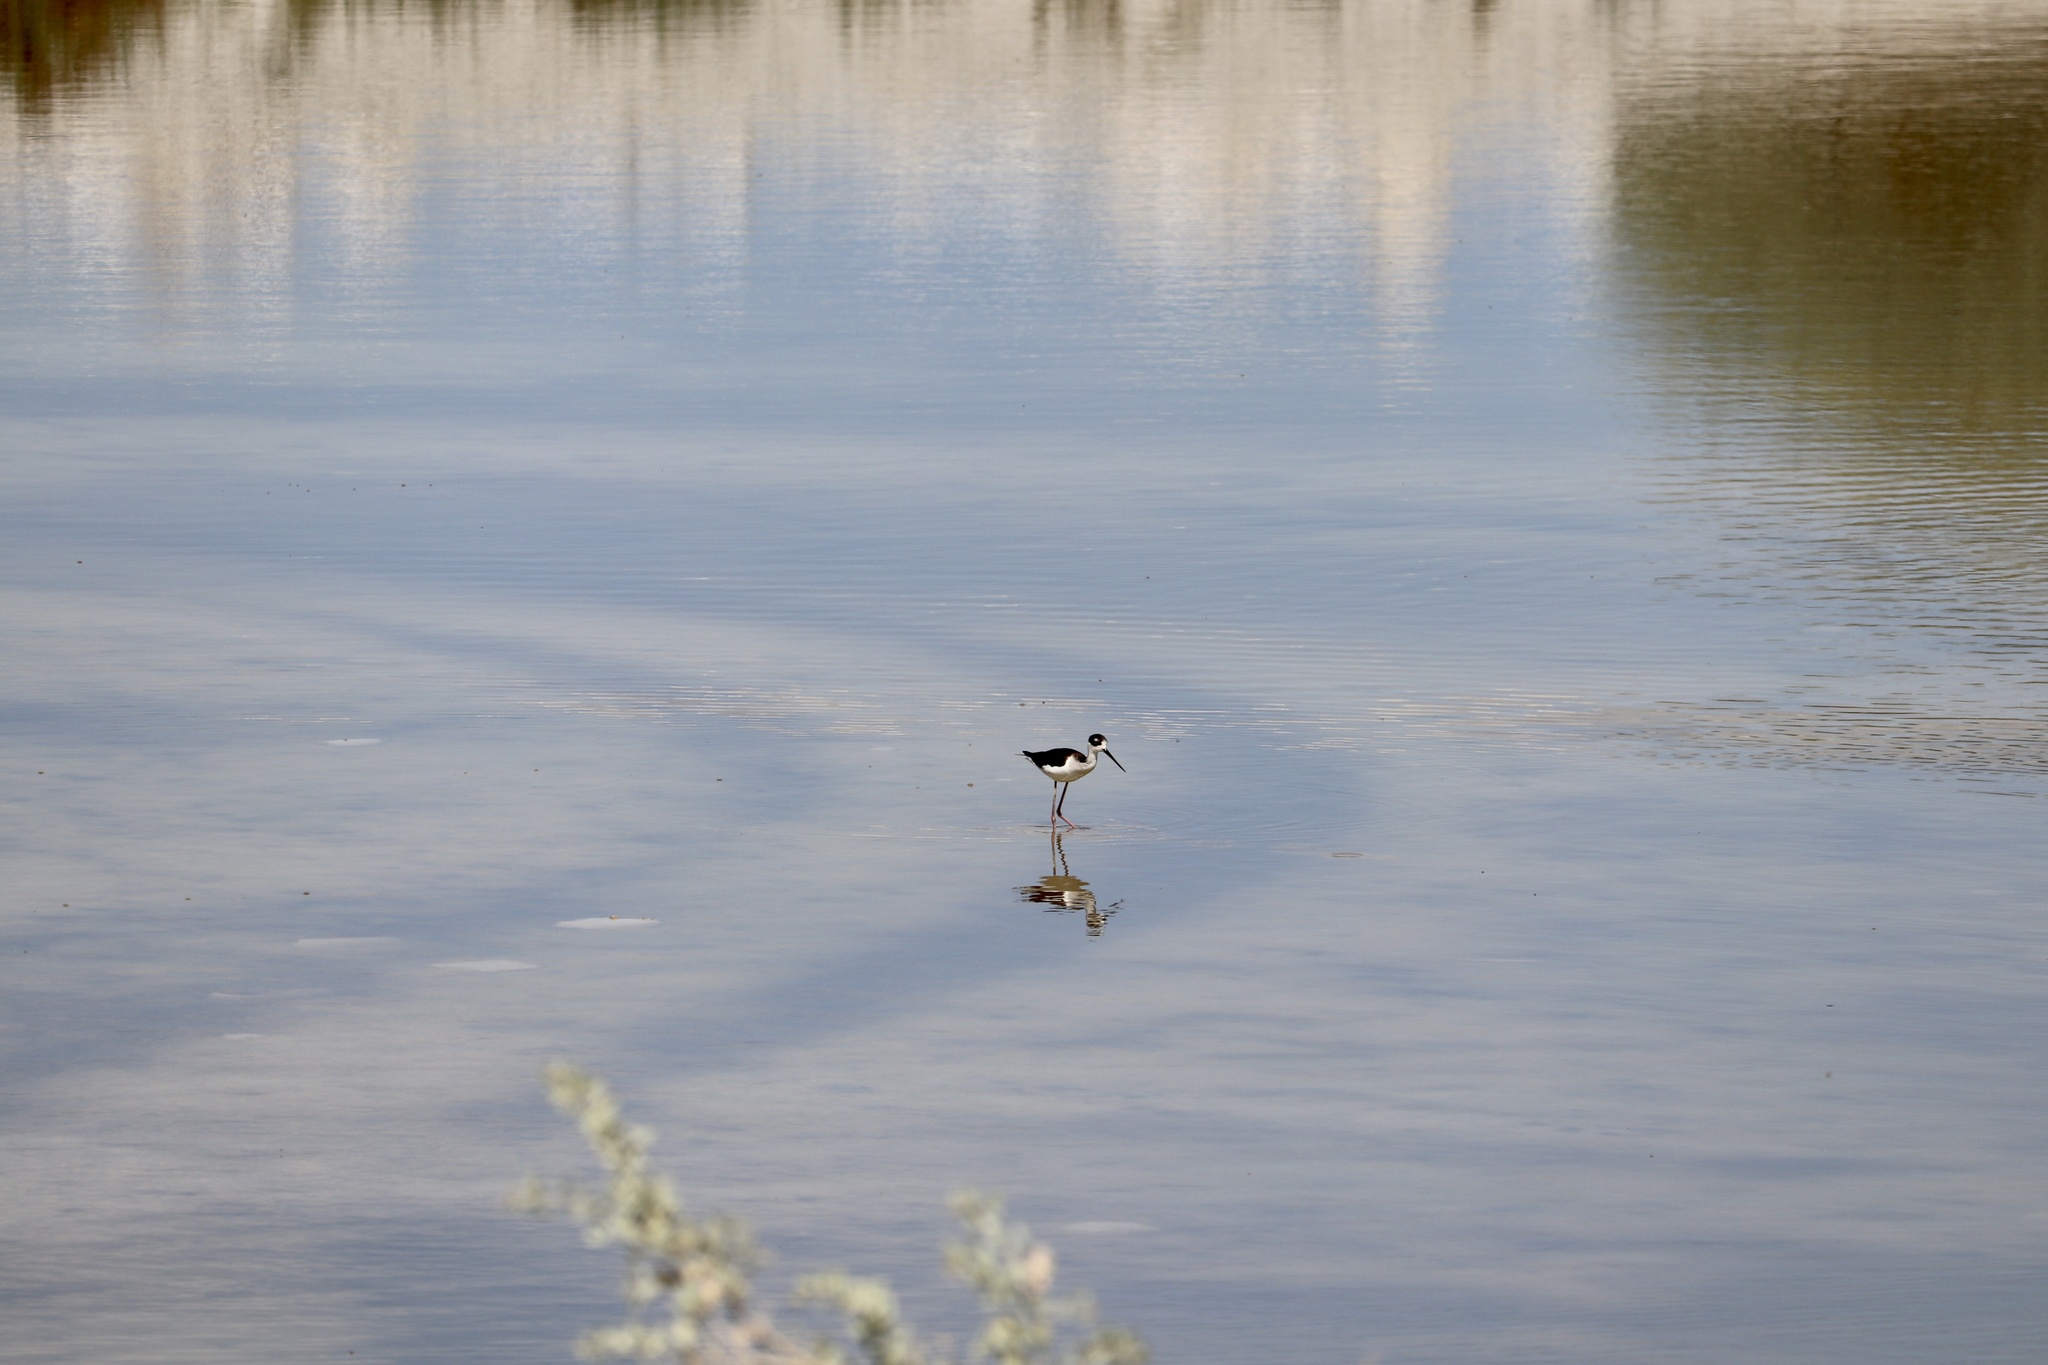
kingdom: Animalia
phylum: Chordata
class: Aves
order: Charadriiformes
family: Recurvirostridae
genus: Himantopus
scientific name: Himantopus mexicanus
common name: Black-necked stilt
